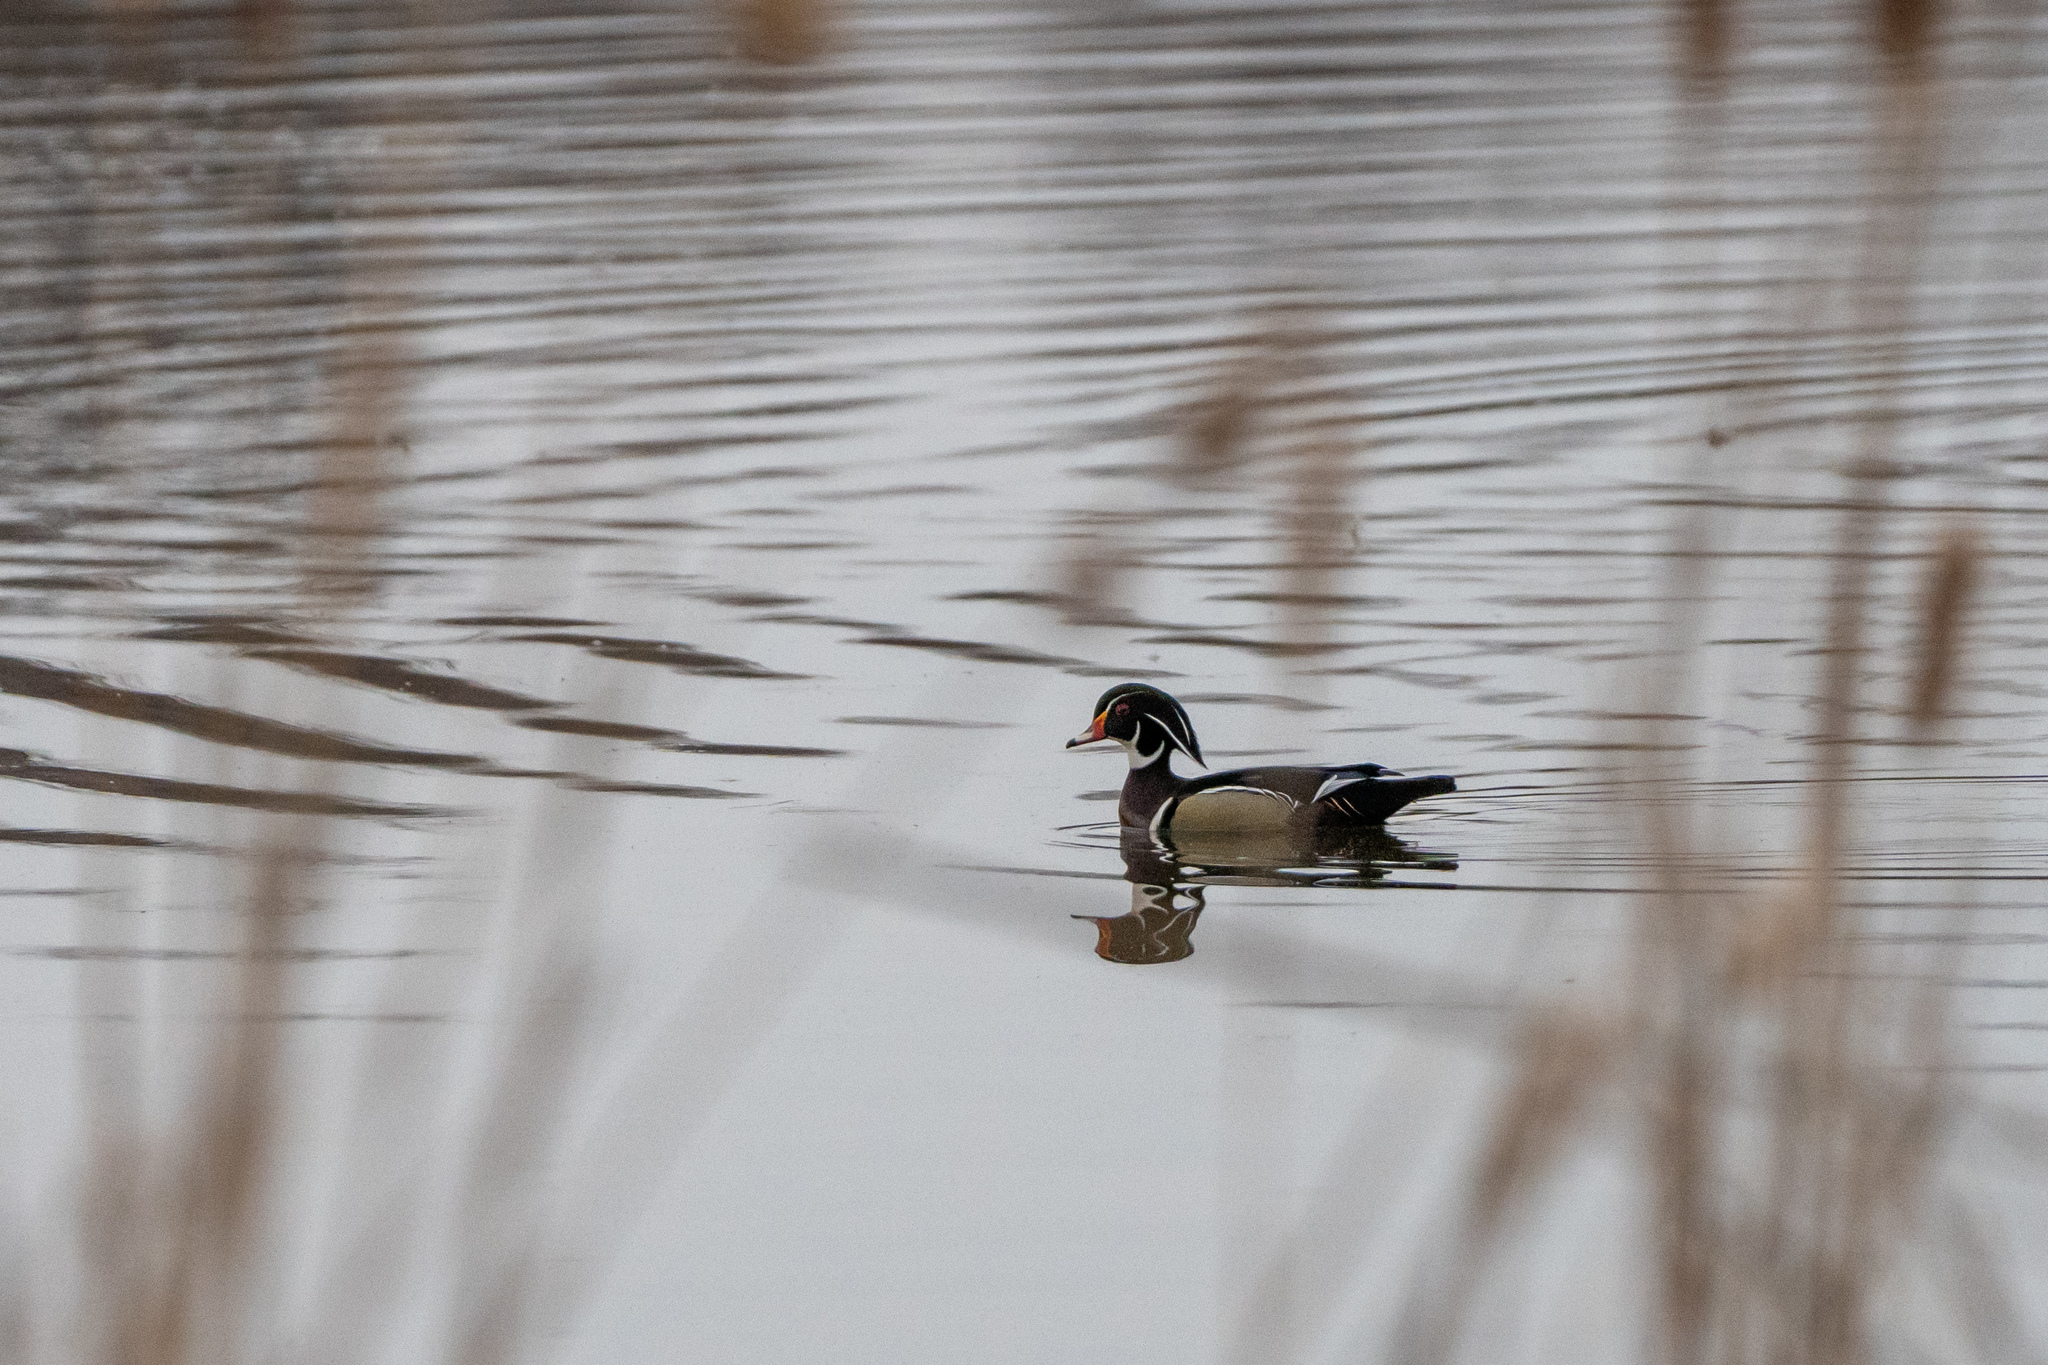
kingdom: Animalia
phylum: Chordata
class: Aves
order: Anseriformes
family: Anatidae
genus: Aix
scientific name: Aix sponsa
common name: Wood duck
